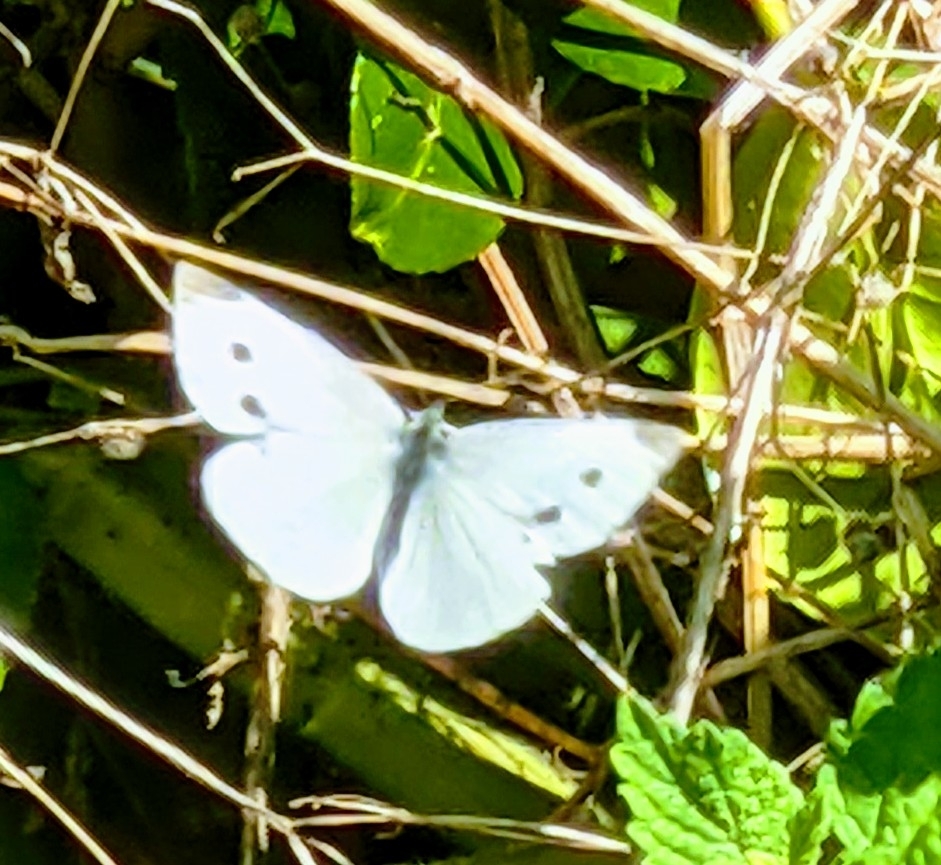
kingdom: Animalia
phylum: Arthropoda
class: Insecta
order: Lepidoptera
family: Pieridae
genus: Pieris
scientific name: Pieris rapae
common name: Small white
